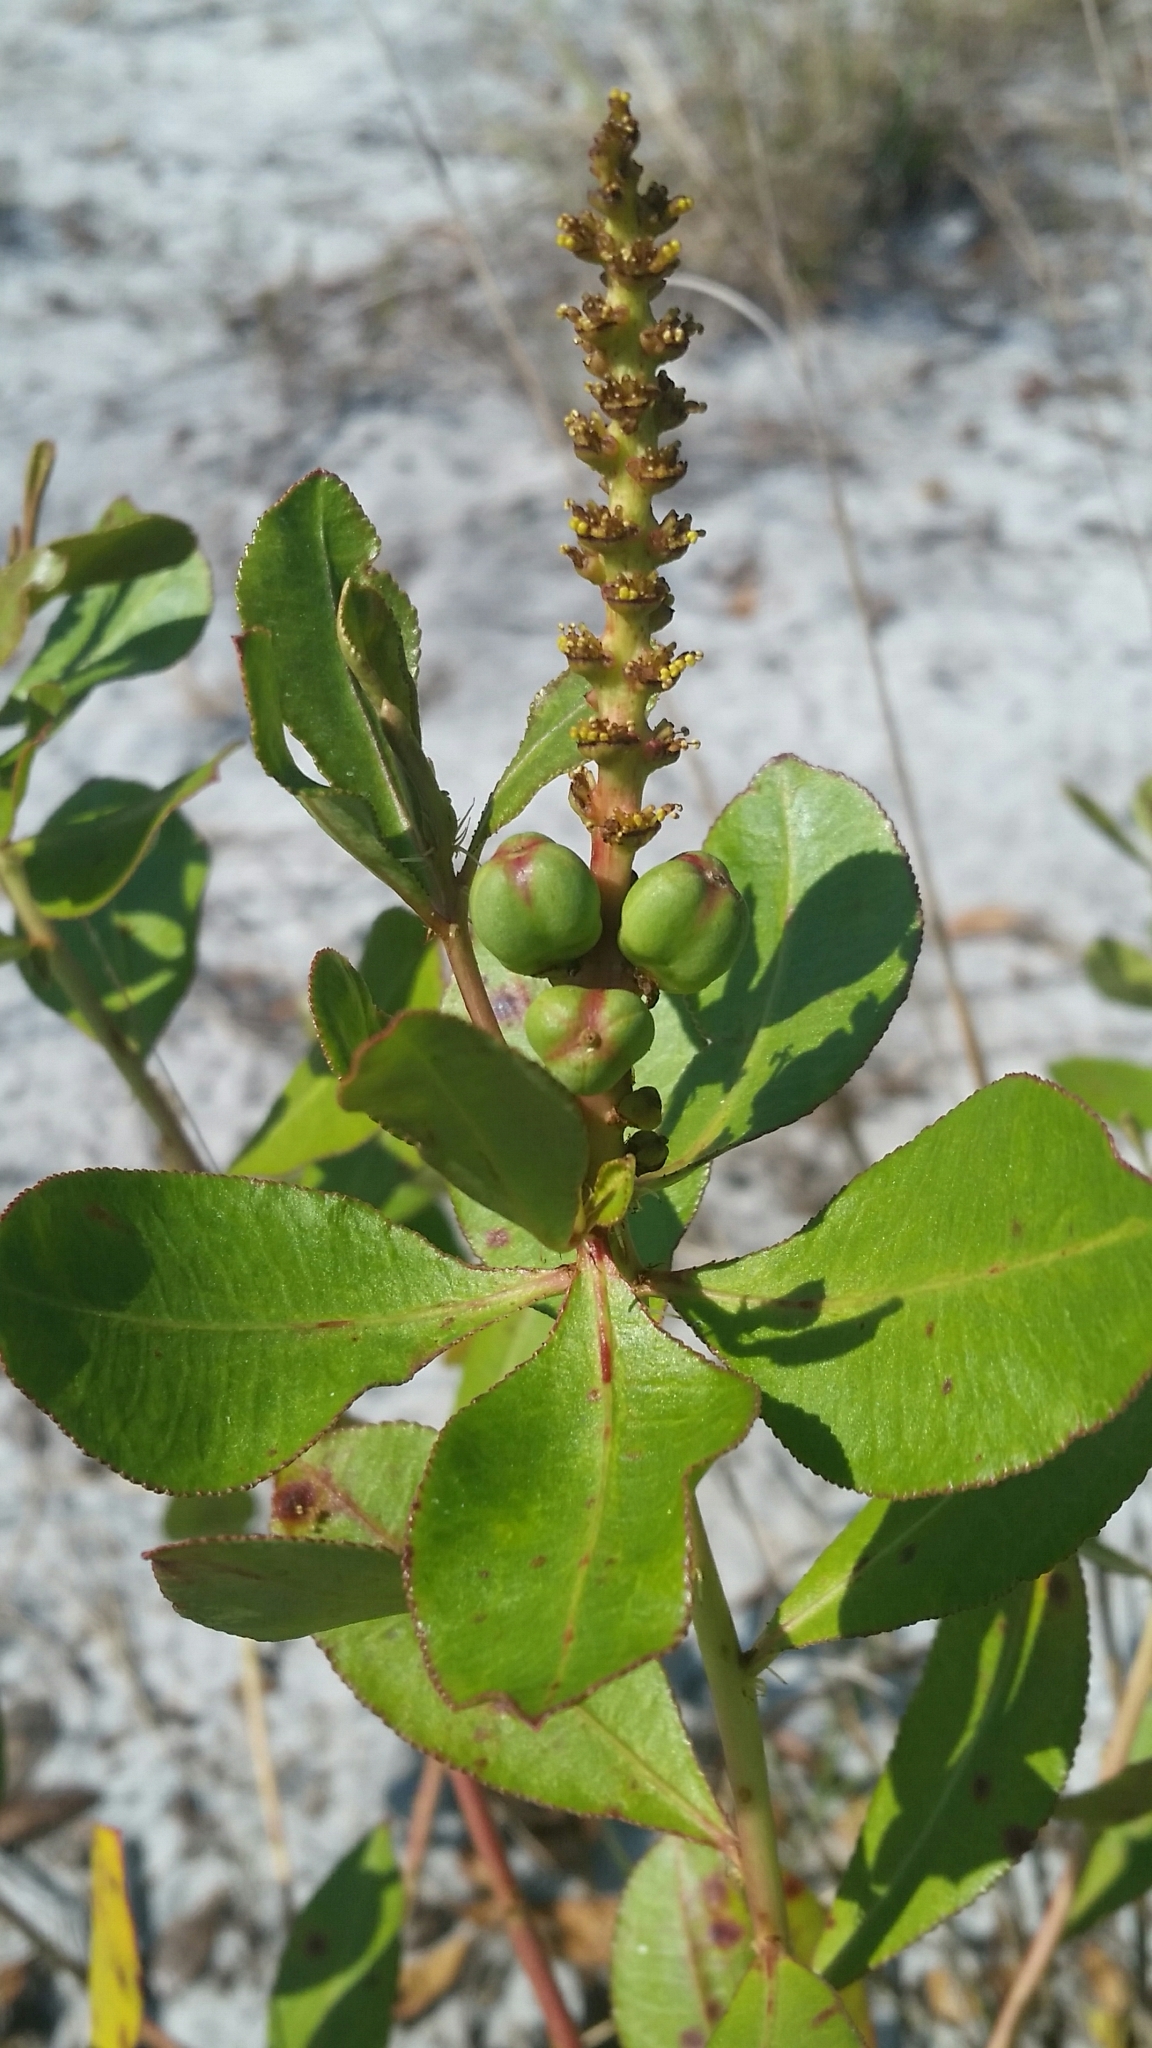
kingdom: Plantae
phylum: Tracheophyta
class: Magnoliopsida
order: Malpighiales
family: Euphorbiaceae
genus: Stillingia
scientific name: Stillingia sylvatica
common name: Queen's-delight
